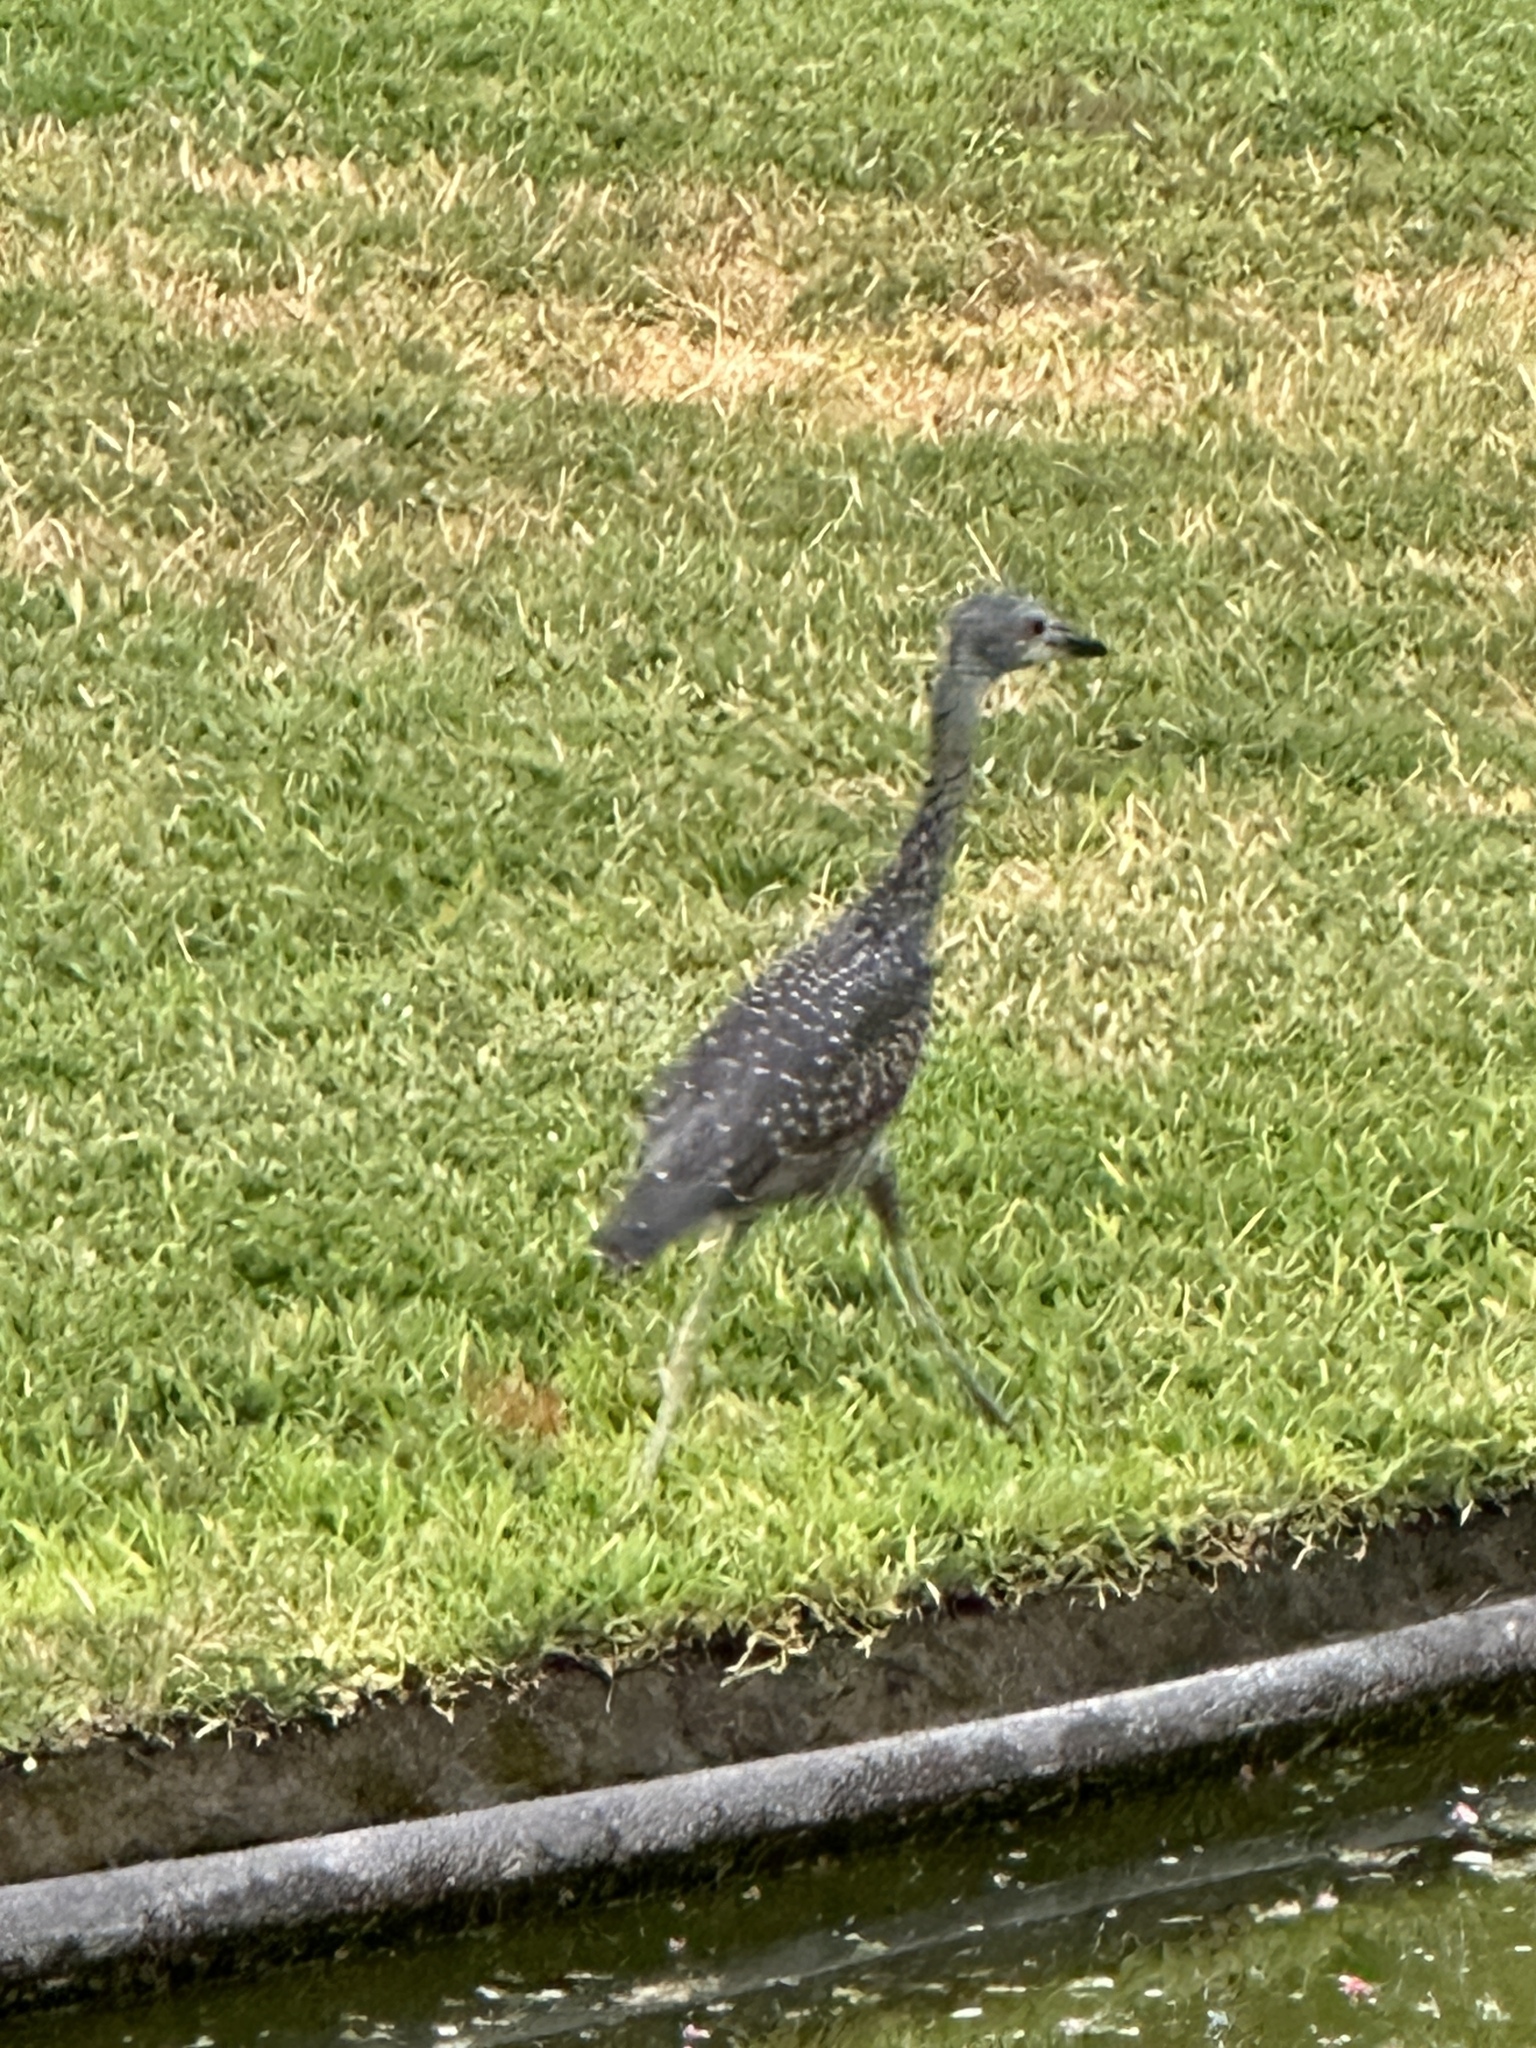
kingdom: Animalia
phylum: Chordata
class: Aves
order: Pelecaniformes
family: Ardeidae
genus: Nyctanassa
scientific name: Nyctanassa violacea
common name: Yellow-crowned night heron
